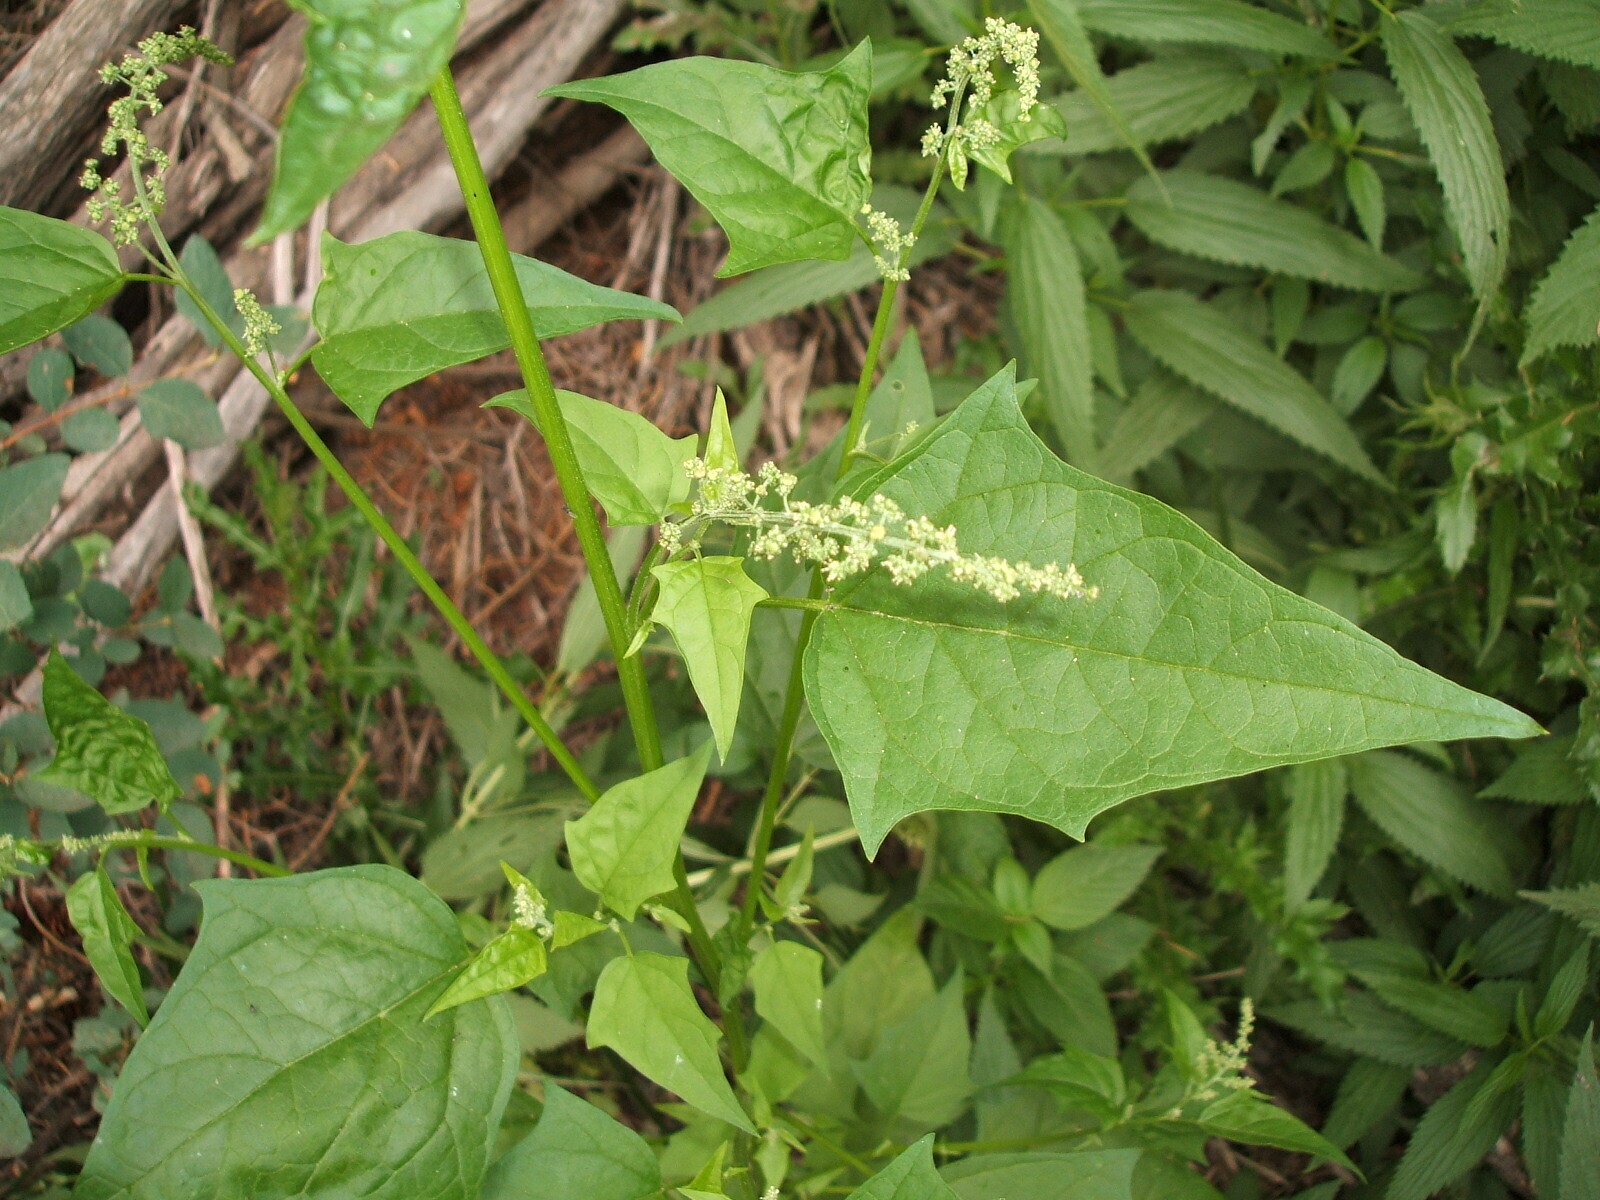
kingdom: Plantae
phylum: Tracheophyta
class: Magnoliopsida
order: Caryophyllales
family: Amaranthaceae
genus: Chenopodiastrum
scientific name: Chenopodiastrum simplex
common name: Large-seed goosefoot
